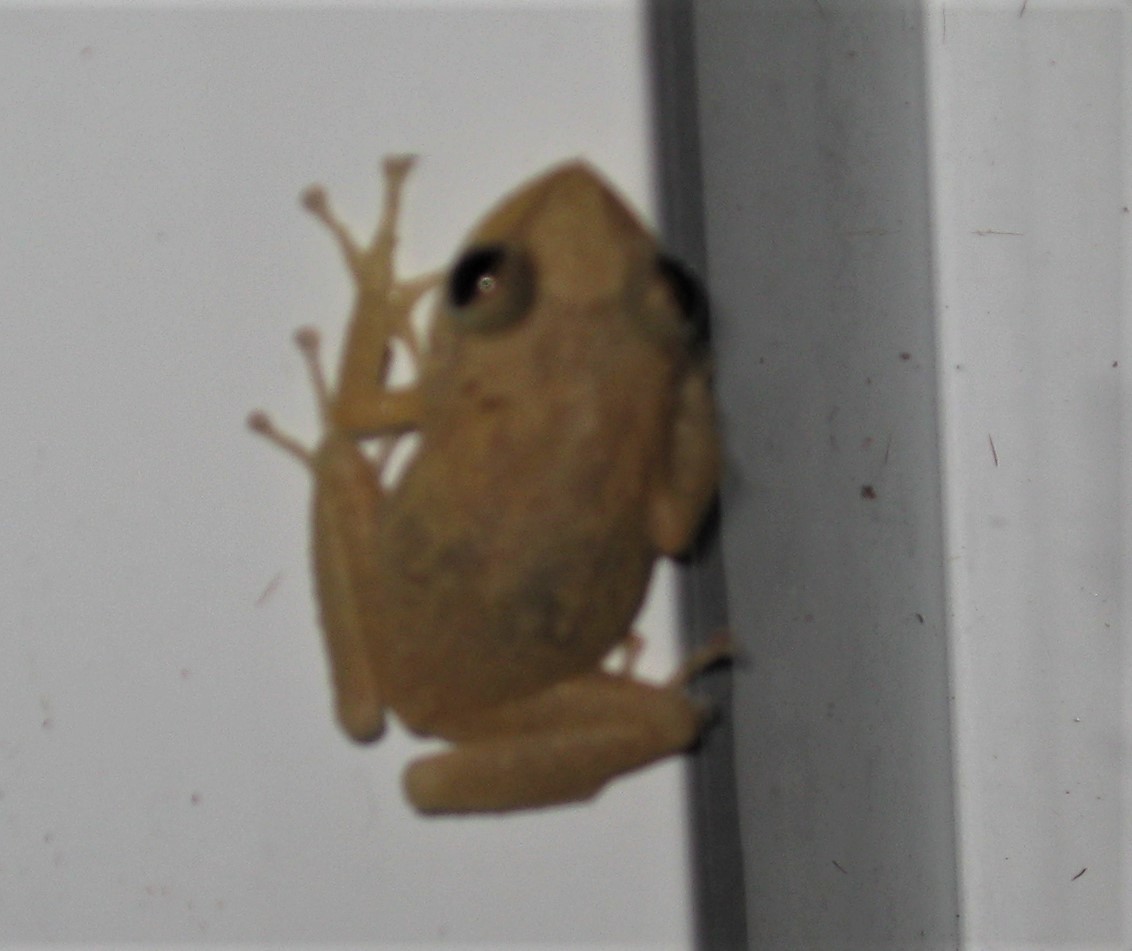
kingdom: Animalia
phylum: Chordata
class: Amphibia
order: Anura
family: Eleutherodactylidae
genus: Eleutherodactylus
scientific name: Eleutherodactylus coqui
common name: Coqui frog
